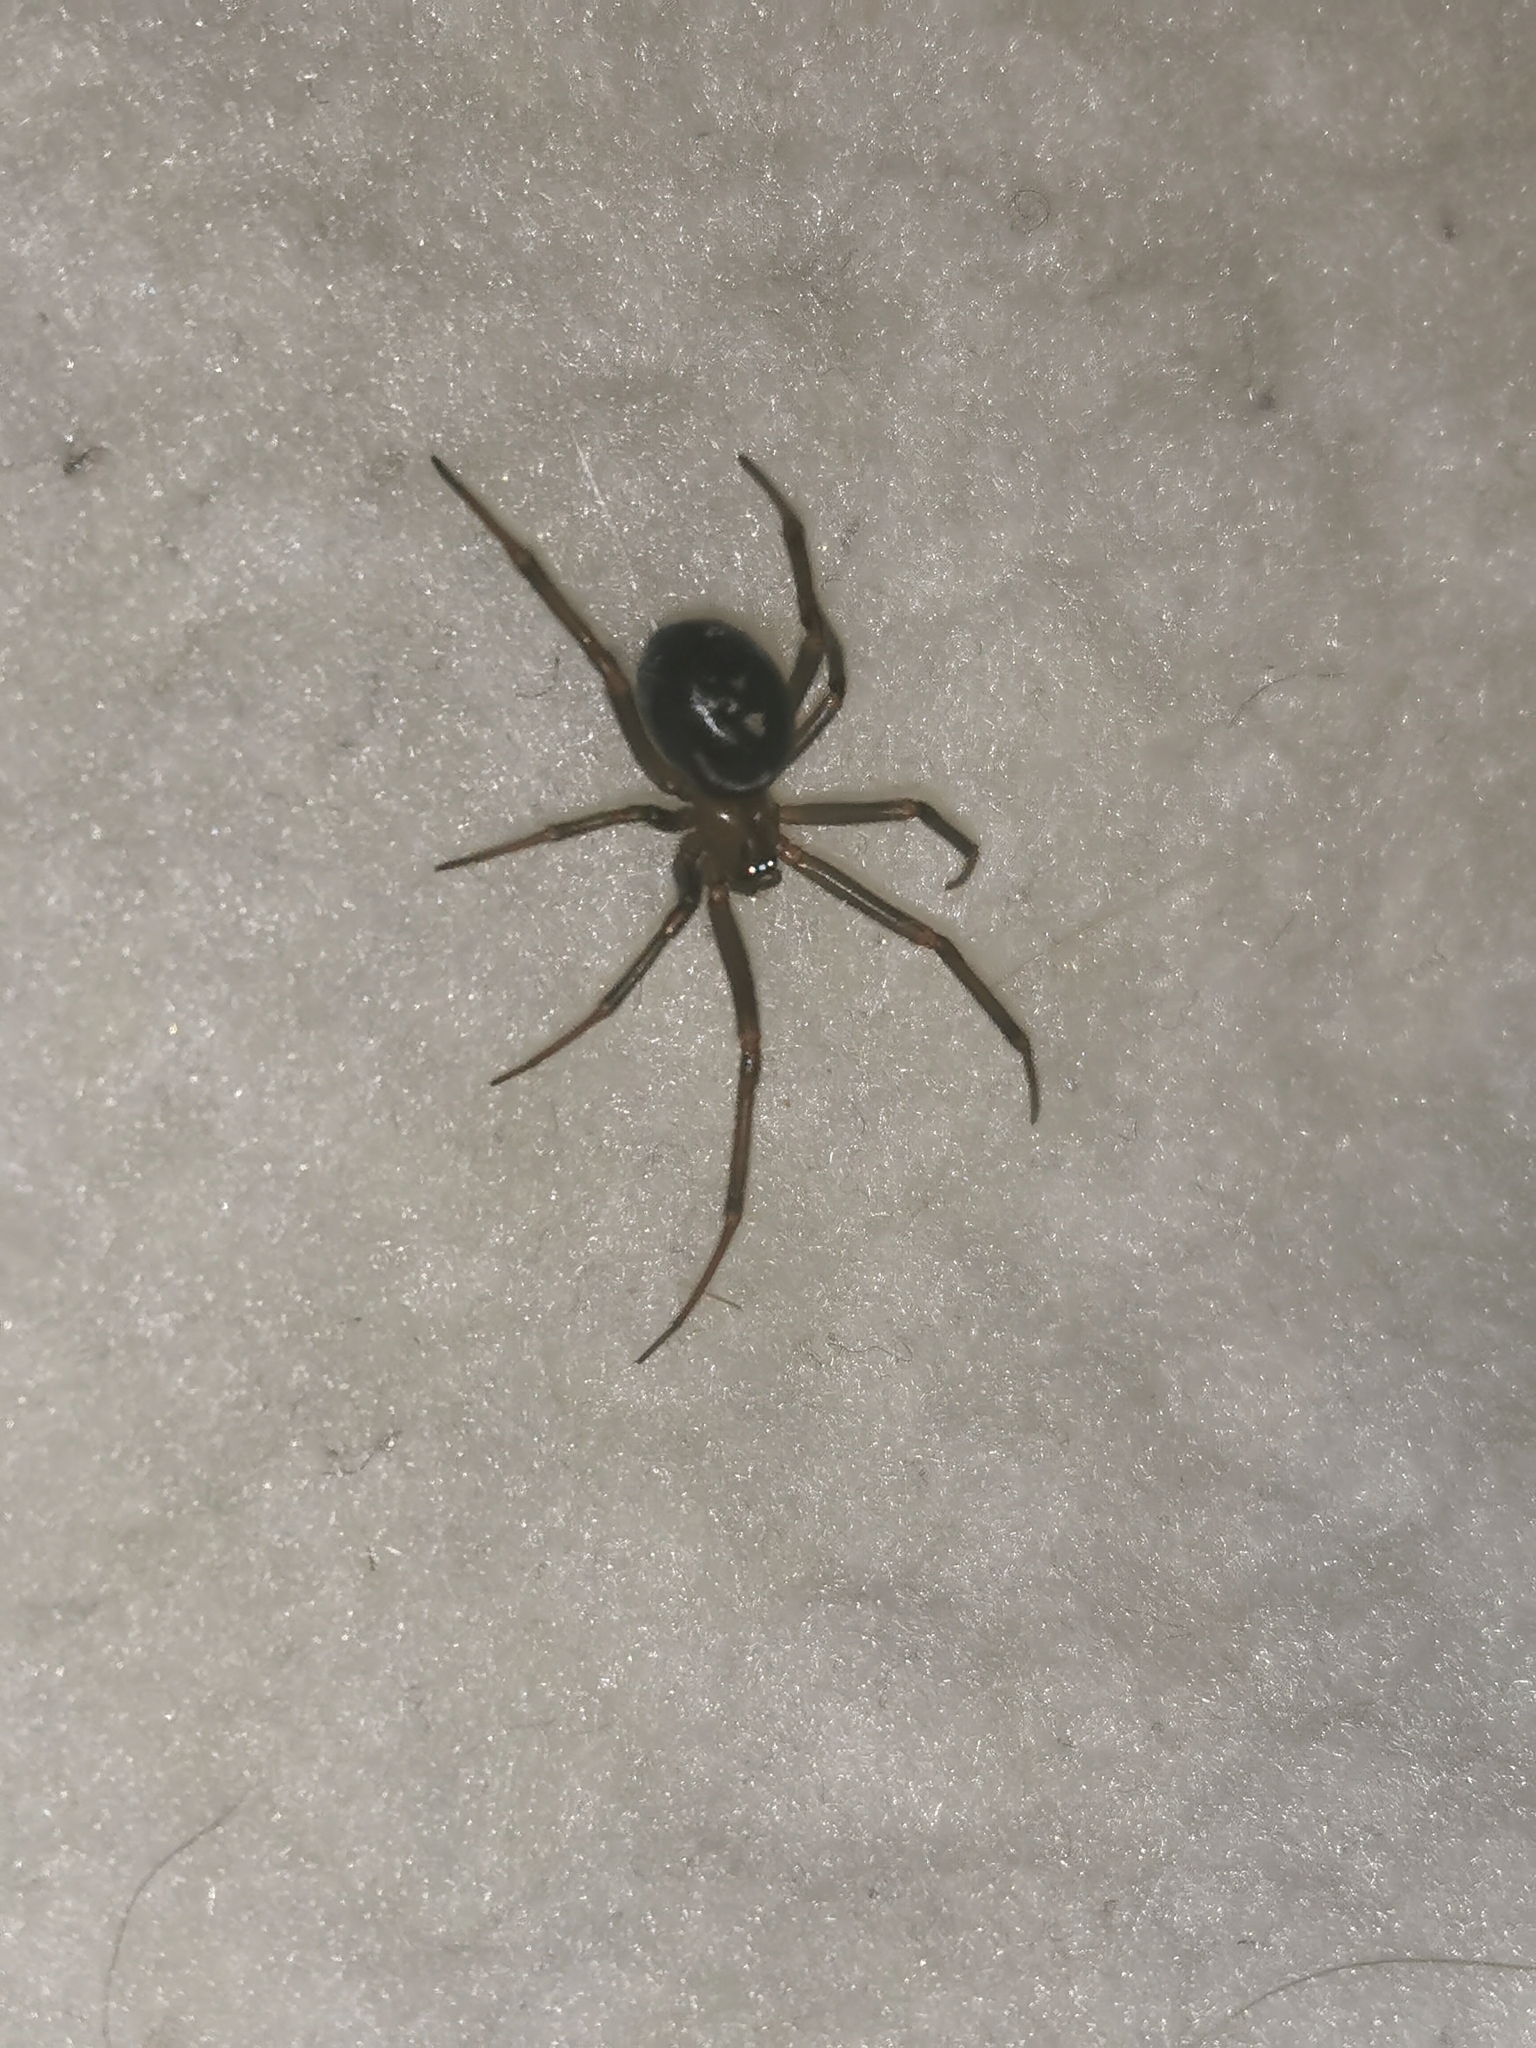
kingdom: Animalia
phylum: Arthropoda
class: Arachnida
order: Araneae
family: Theridiidae
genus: Steatoda
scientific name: Steatoda grossa
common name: False black widow
